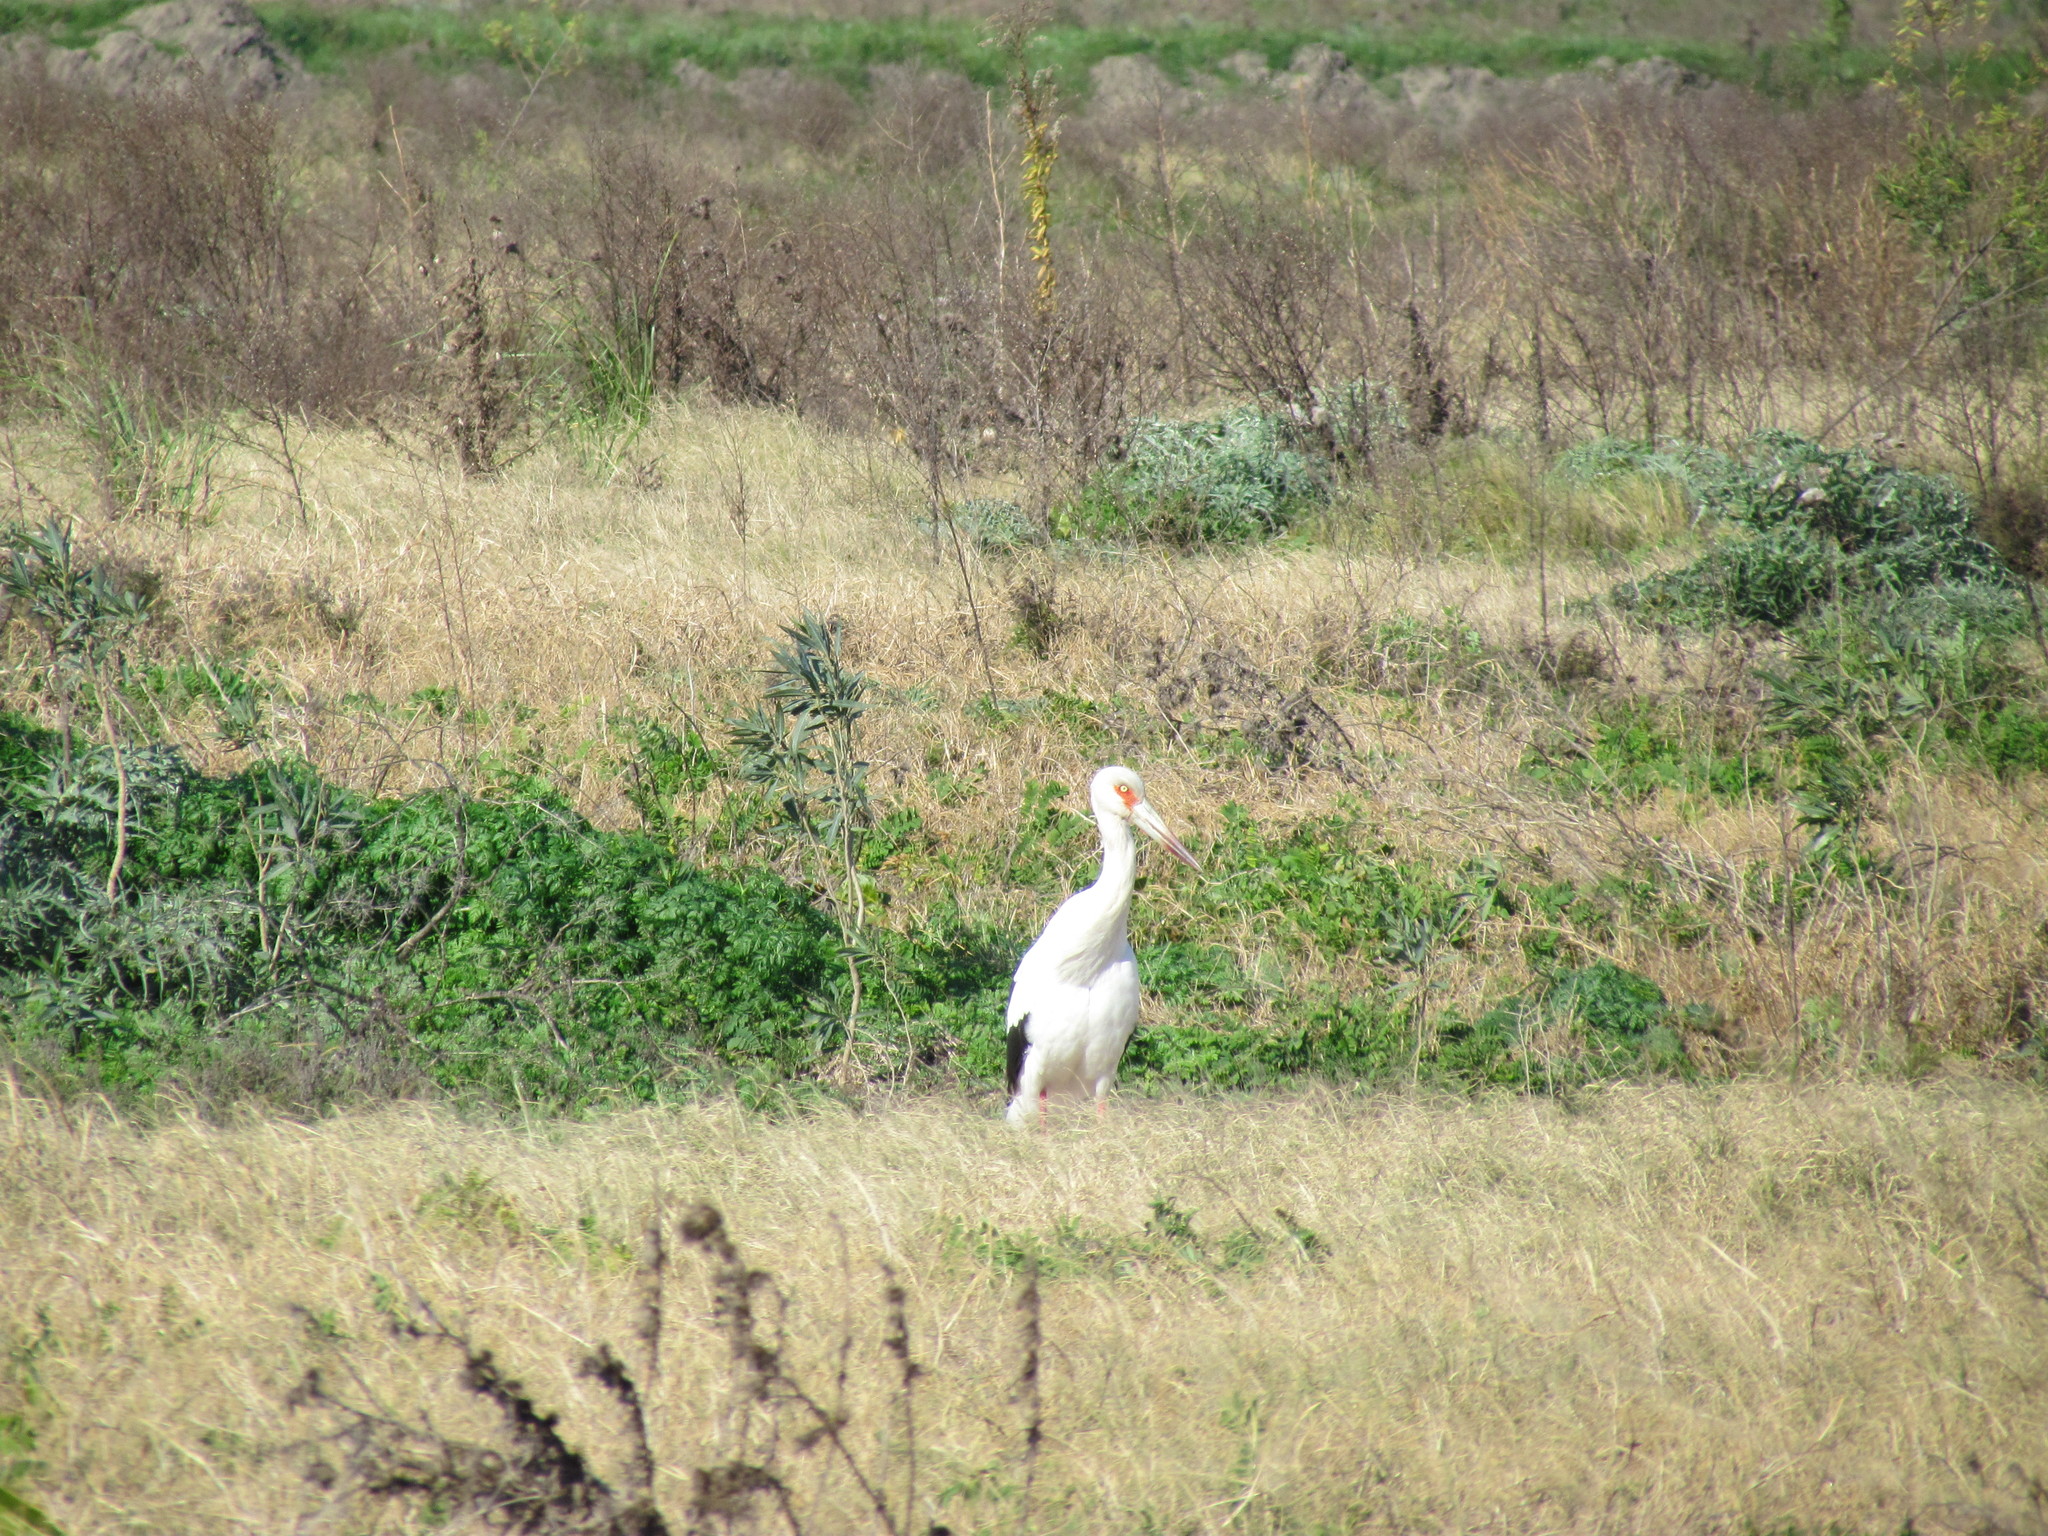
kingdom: Animalia
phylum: Chordata
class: Aves
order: Ciconiiformes
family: Ciconiidae
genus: Ciconia
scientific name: Ciconia maguari
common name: Maguari stork
